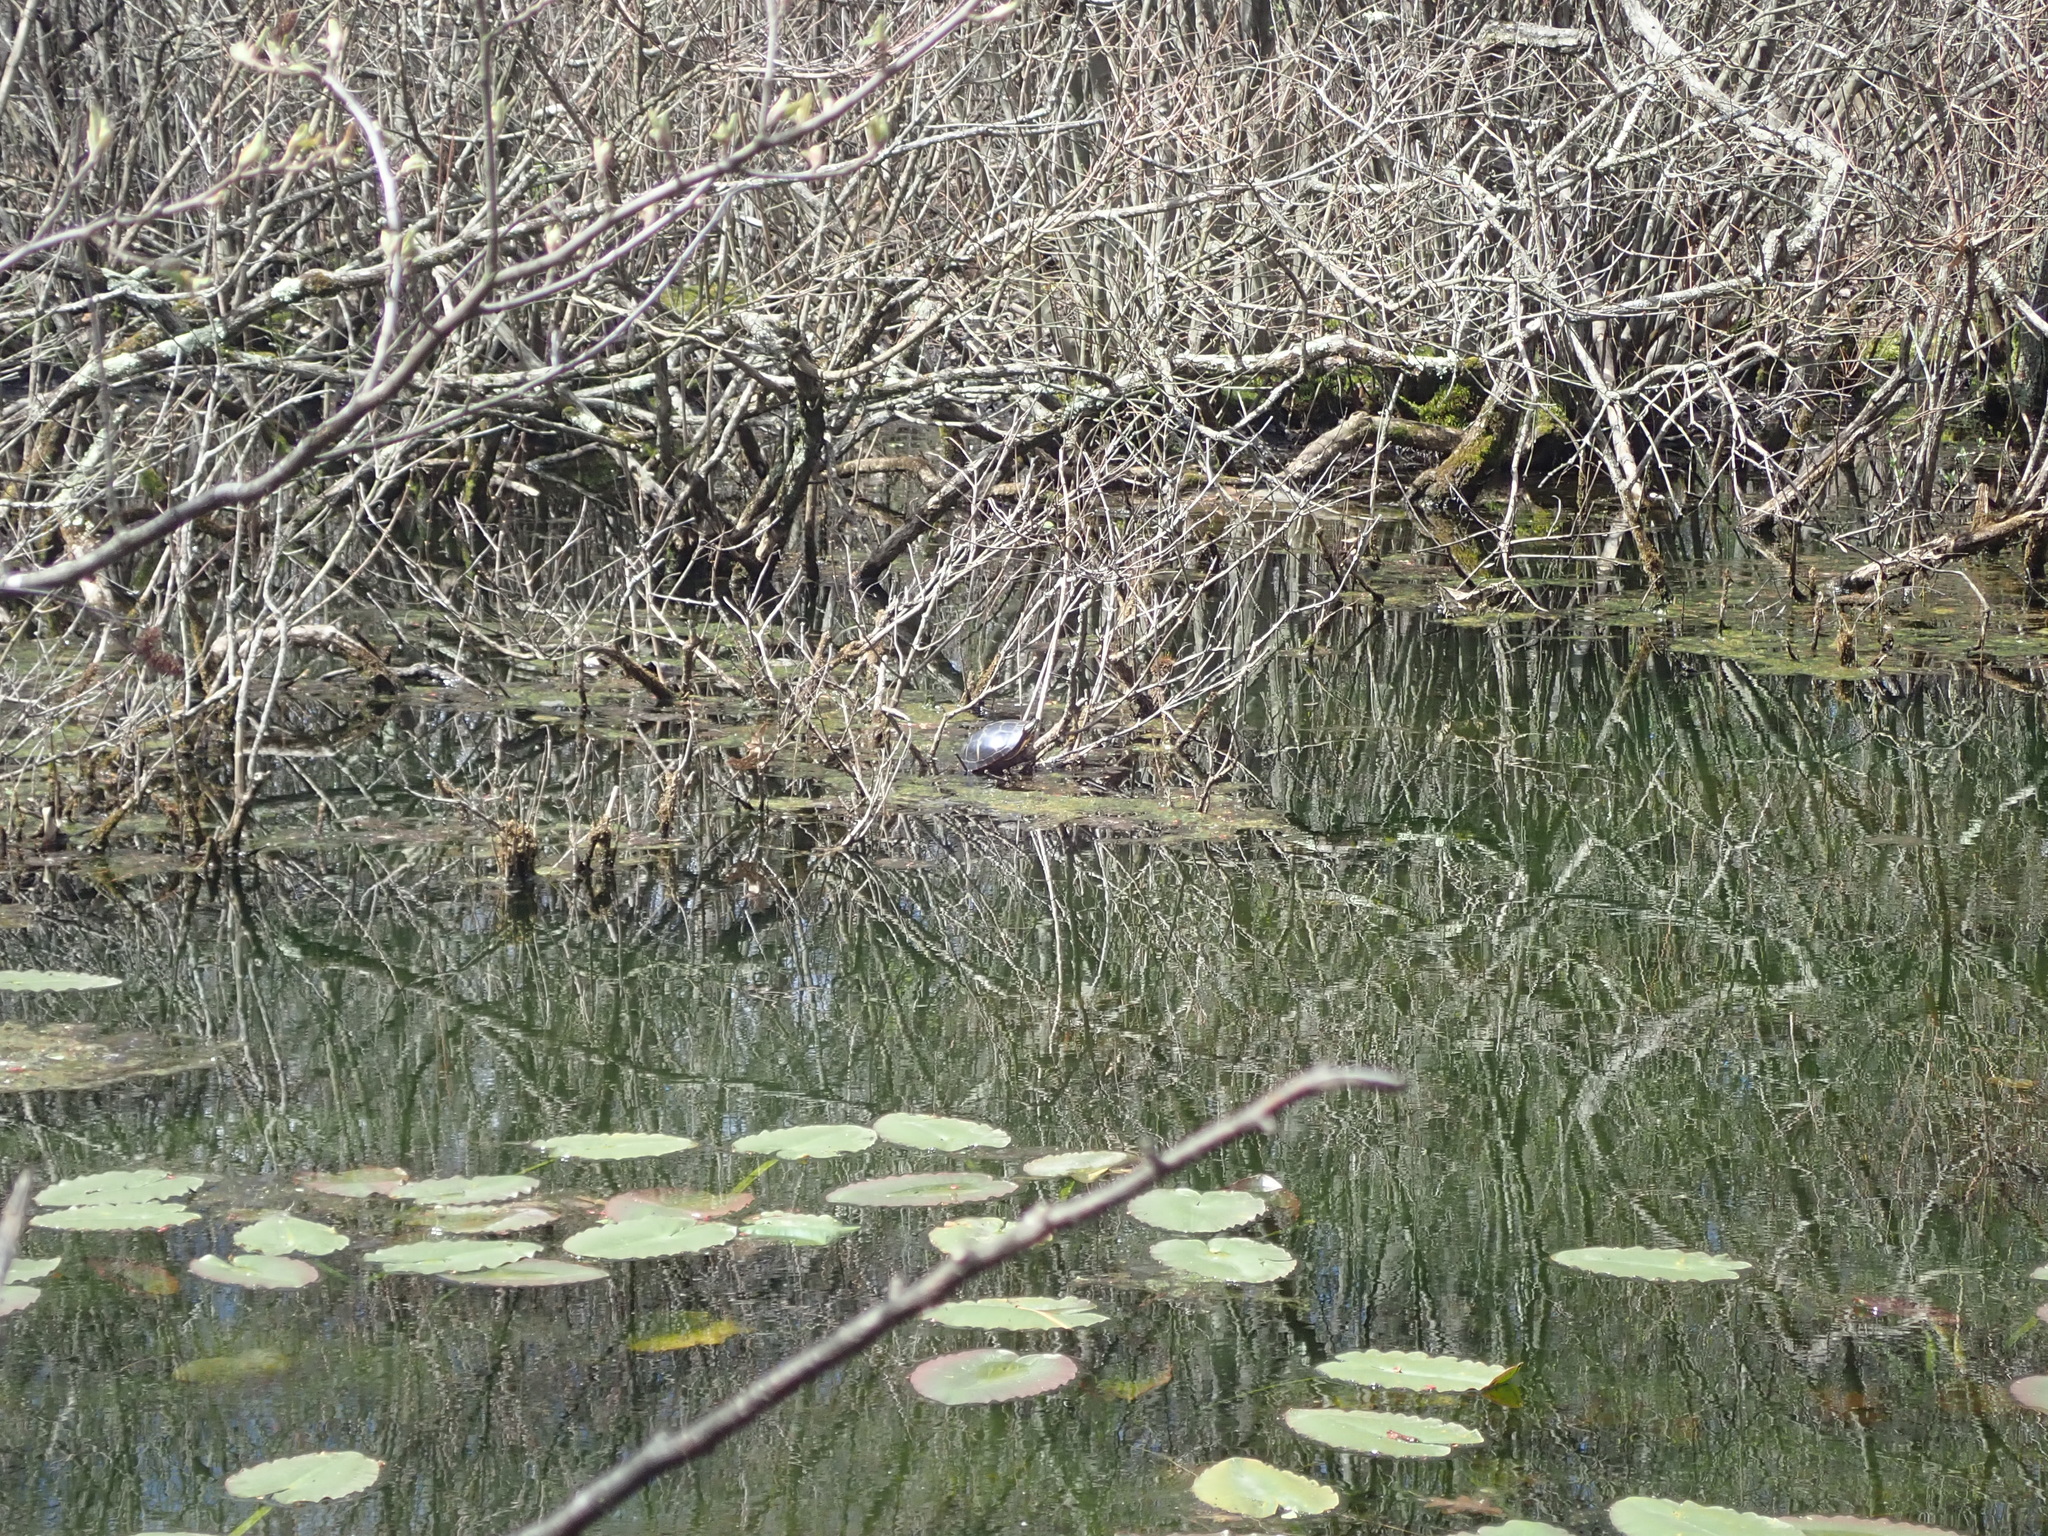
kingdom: Animalia
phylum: Chordata
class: Testudines
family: Emydidae
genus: Chrysemys
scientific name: Chrysemys picta
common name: Painted turtle
